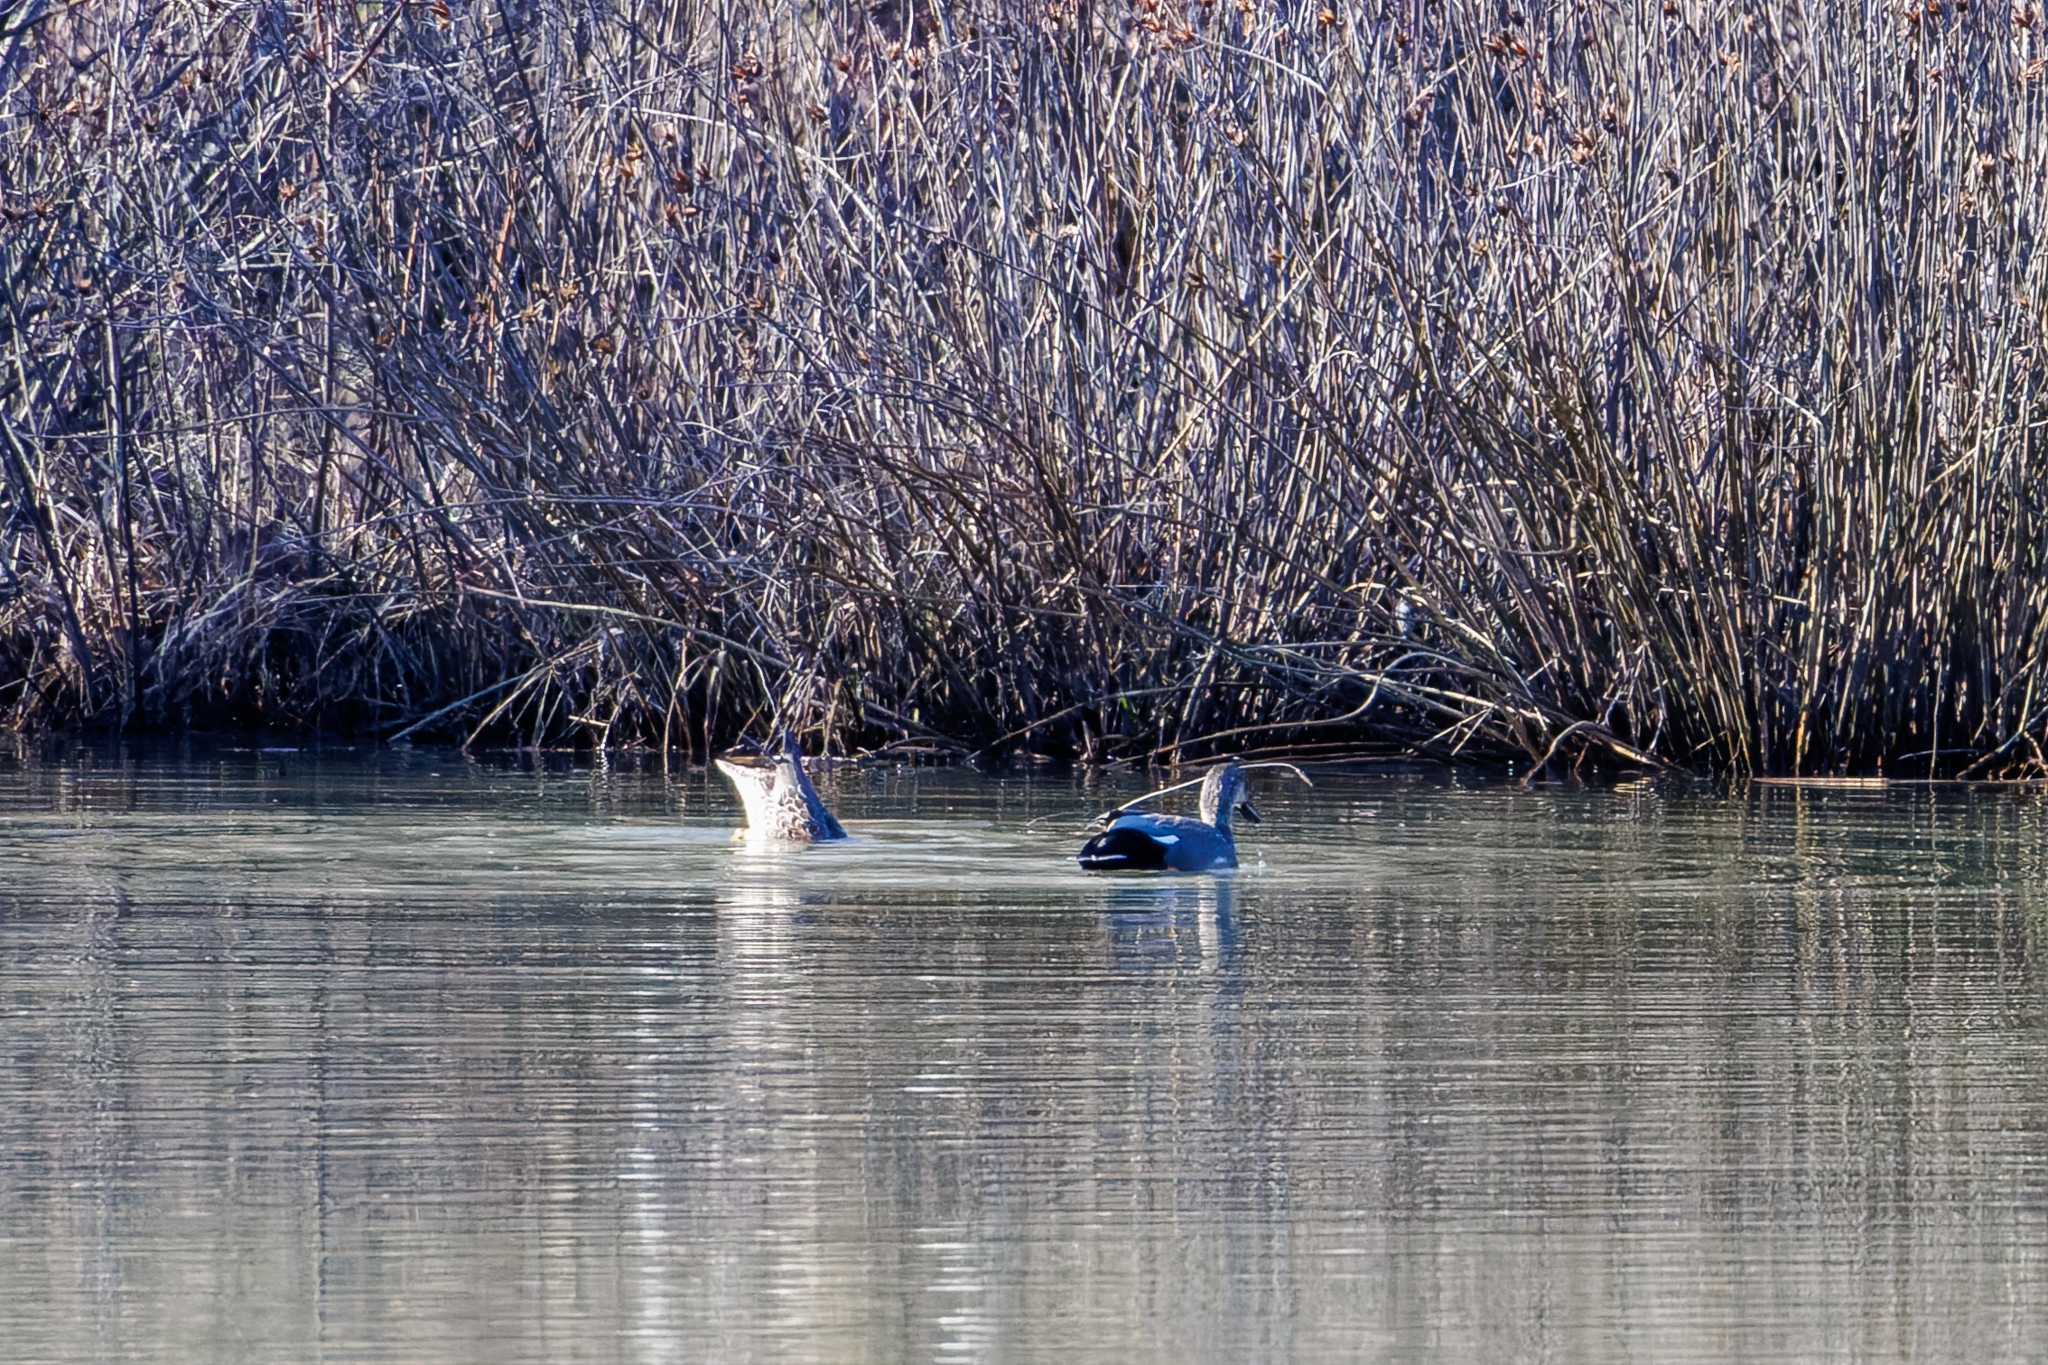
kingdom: Animalia
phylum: Chordata
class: Aves
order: Anseriformes
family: Anatidae
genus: Mareca
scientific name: Mareca strepera
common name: Gadwall
